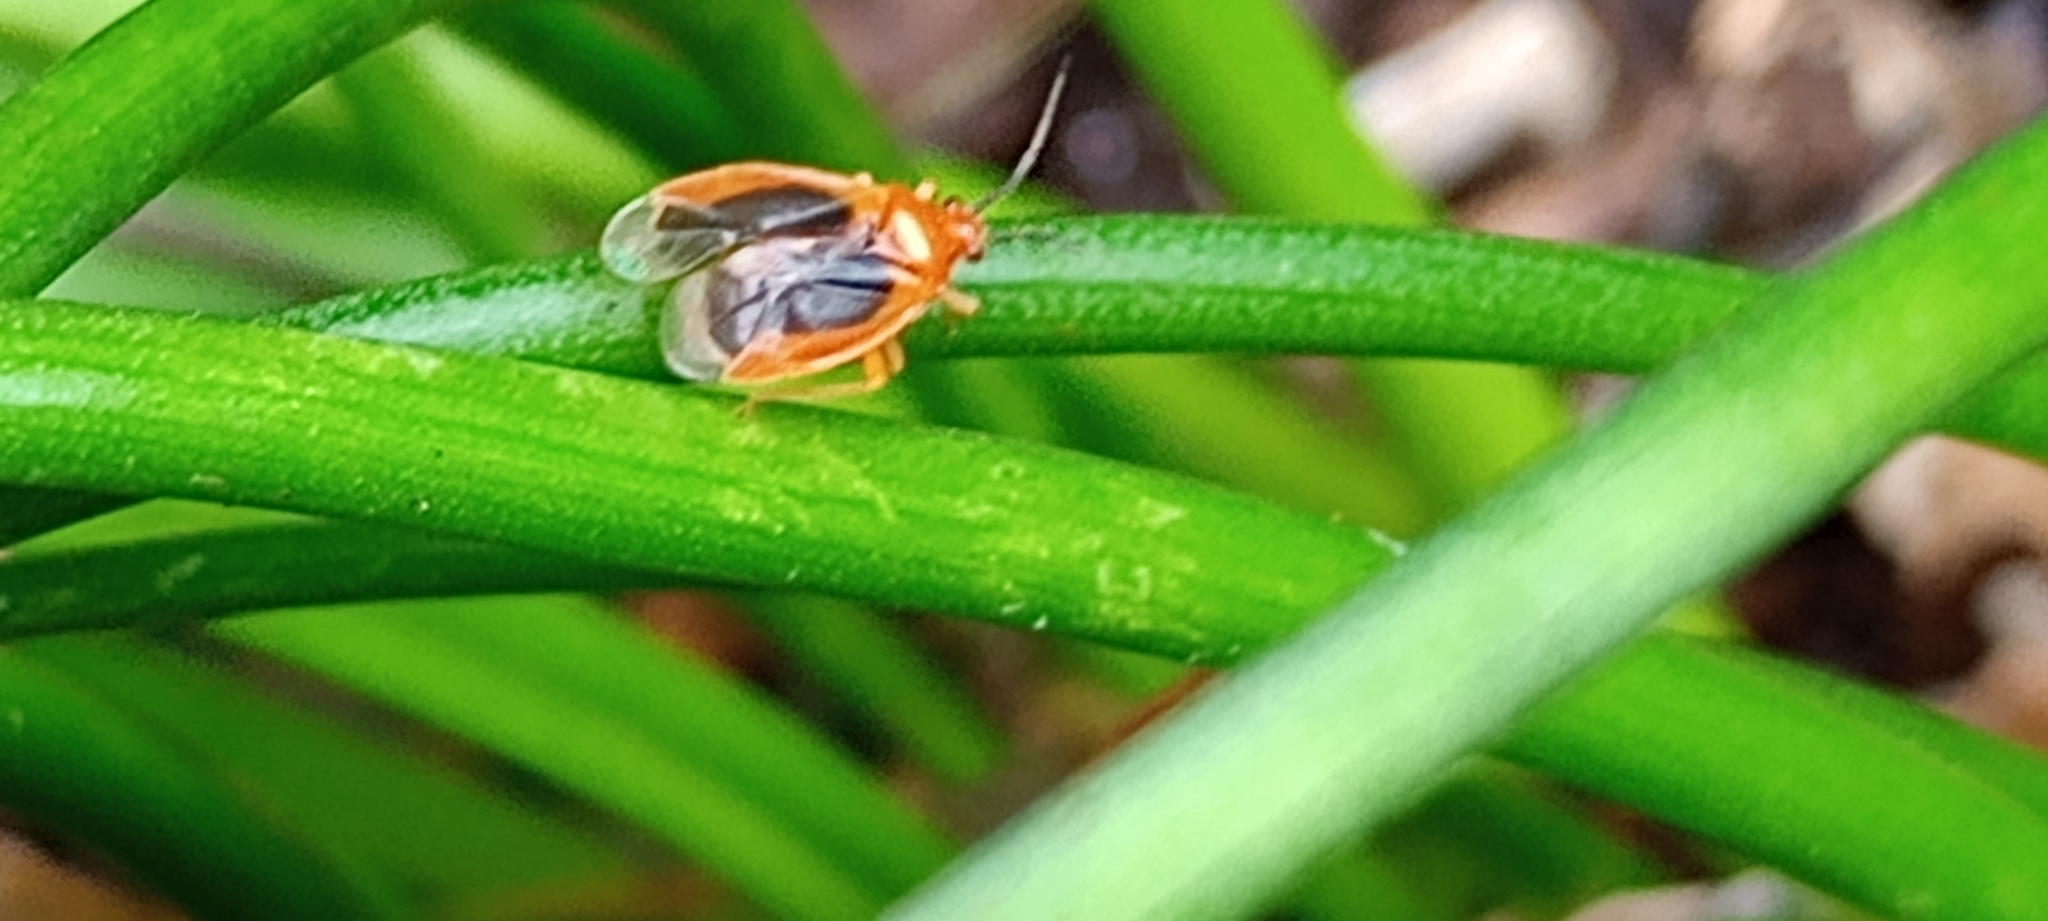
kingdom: Animalia
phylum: Arthropoda
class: Insecta
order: Hemiptera
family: Miridae
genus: Tenthecoris
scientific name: Tenthecoris bicolor
